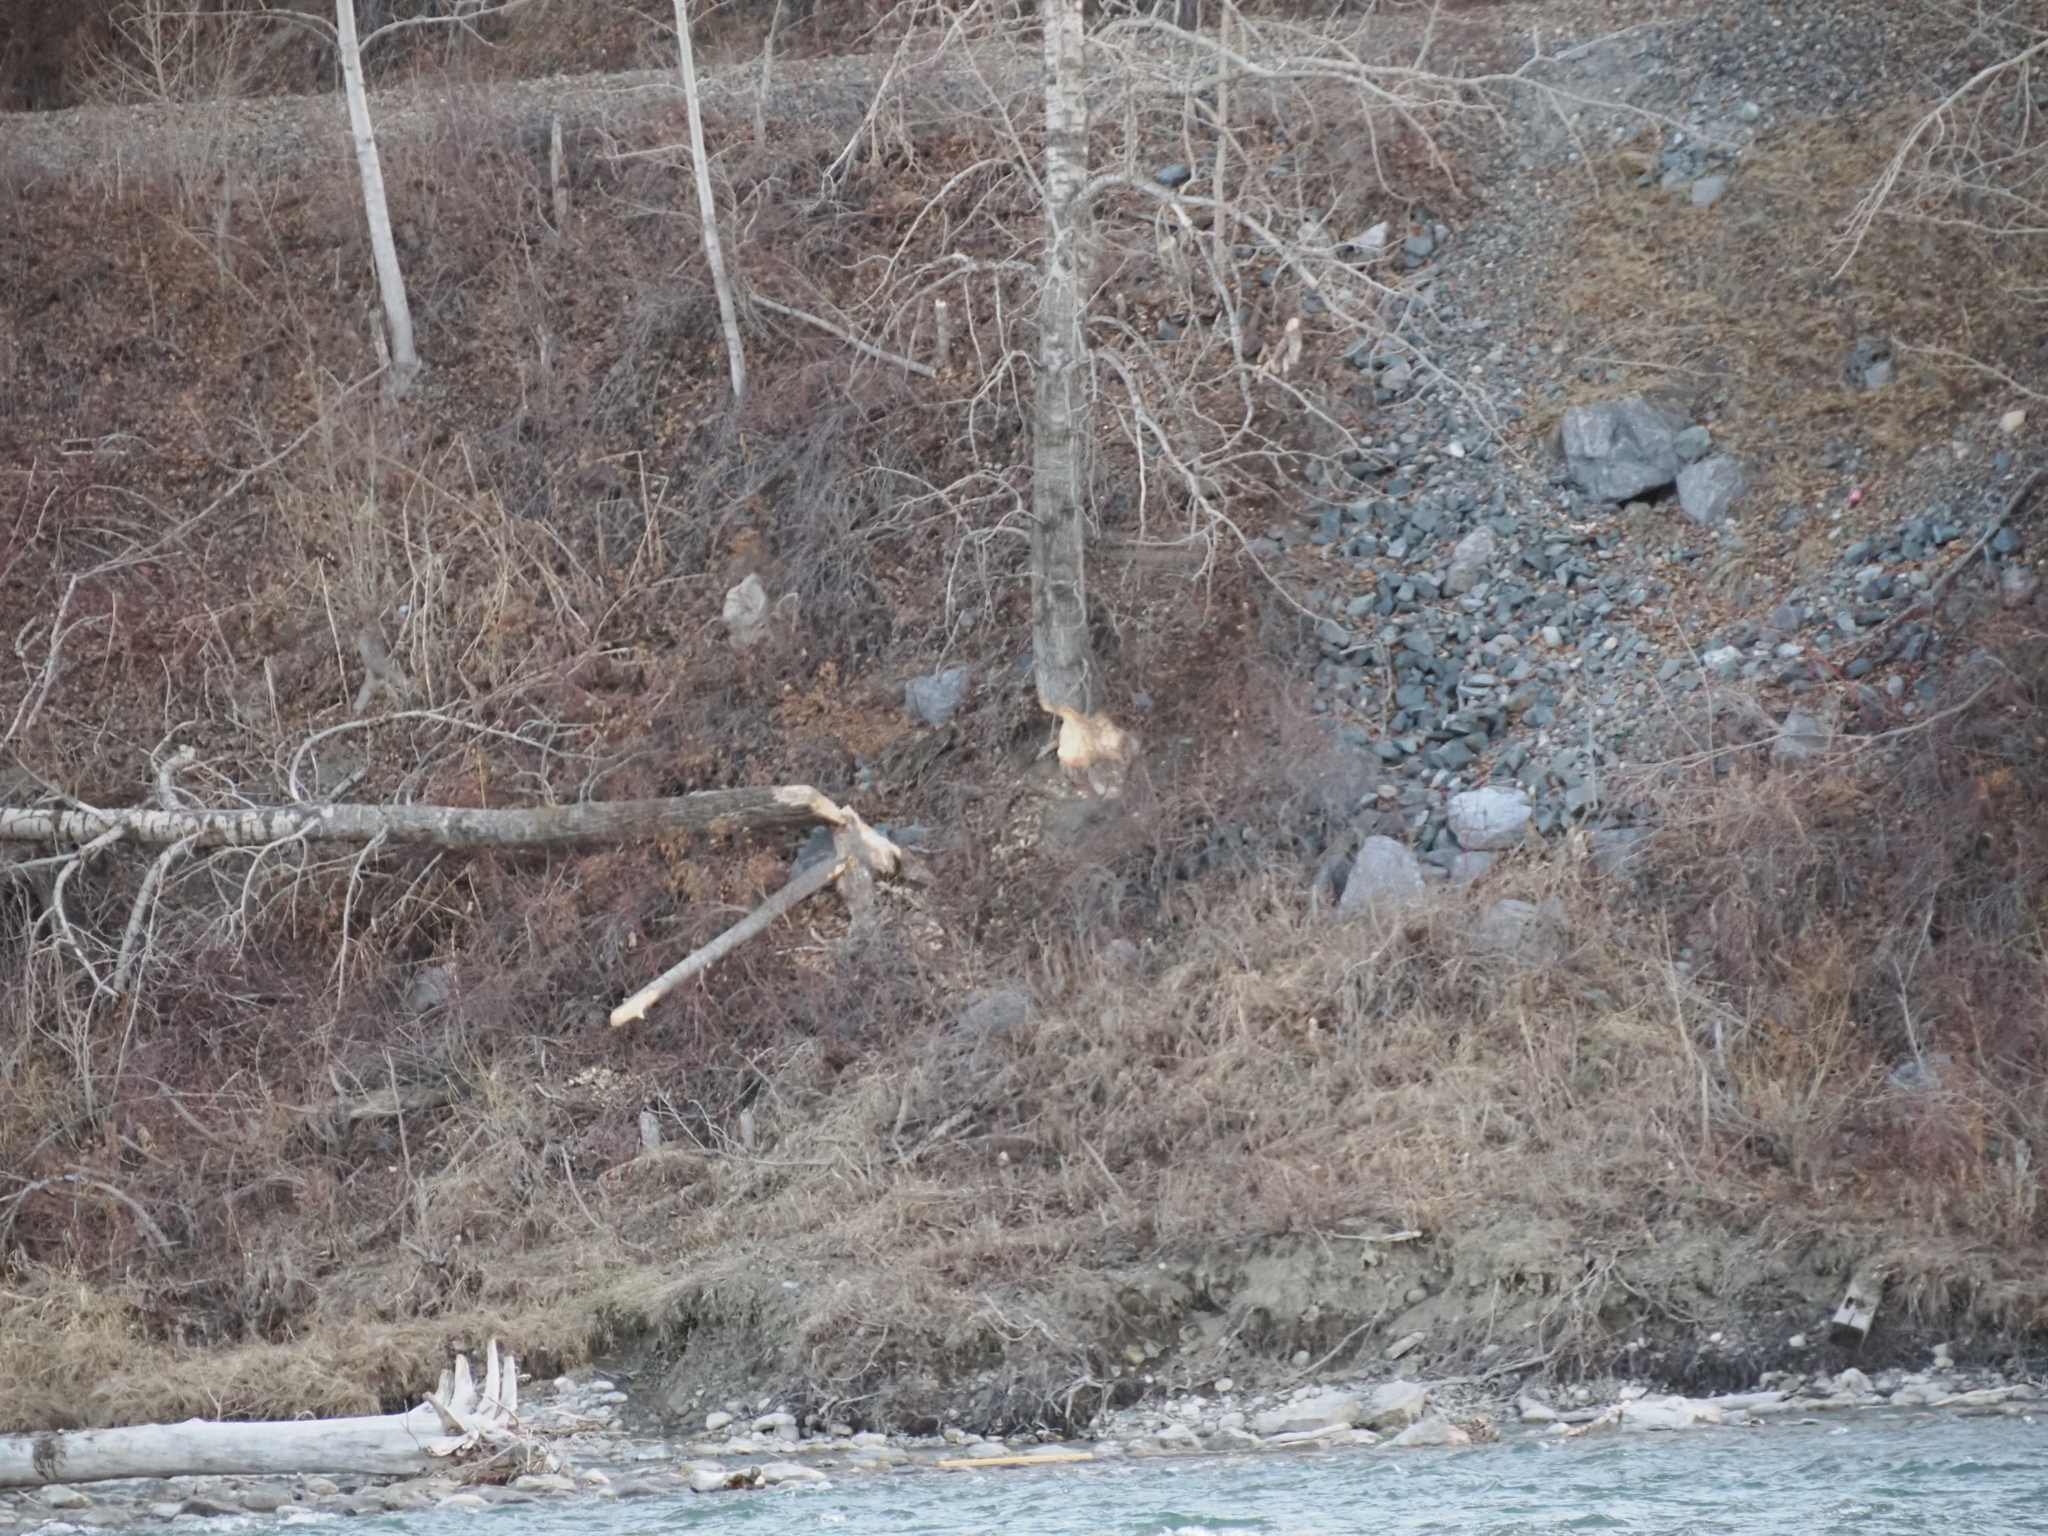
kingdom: Animalia
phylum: Chordata
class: Mammalia
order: Rodentia
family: Castoridae
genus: Castor
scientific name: Castor canadensis
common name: American beaver
